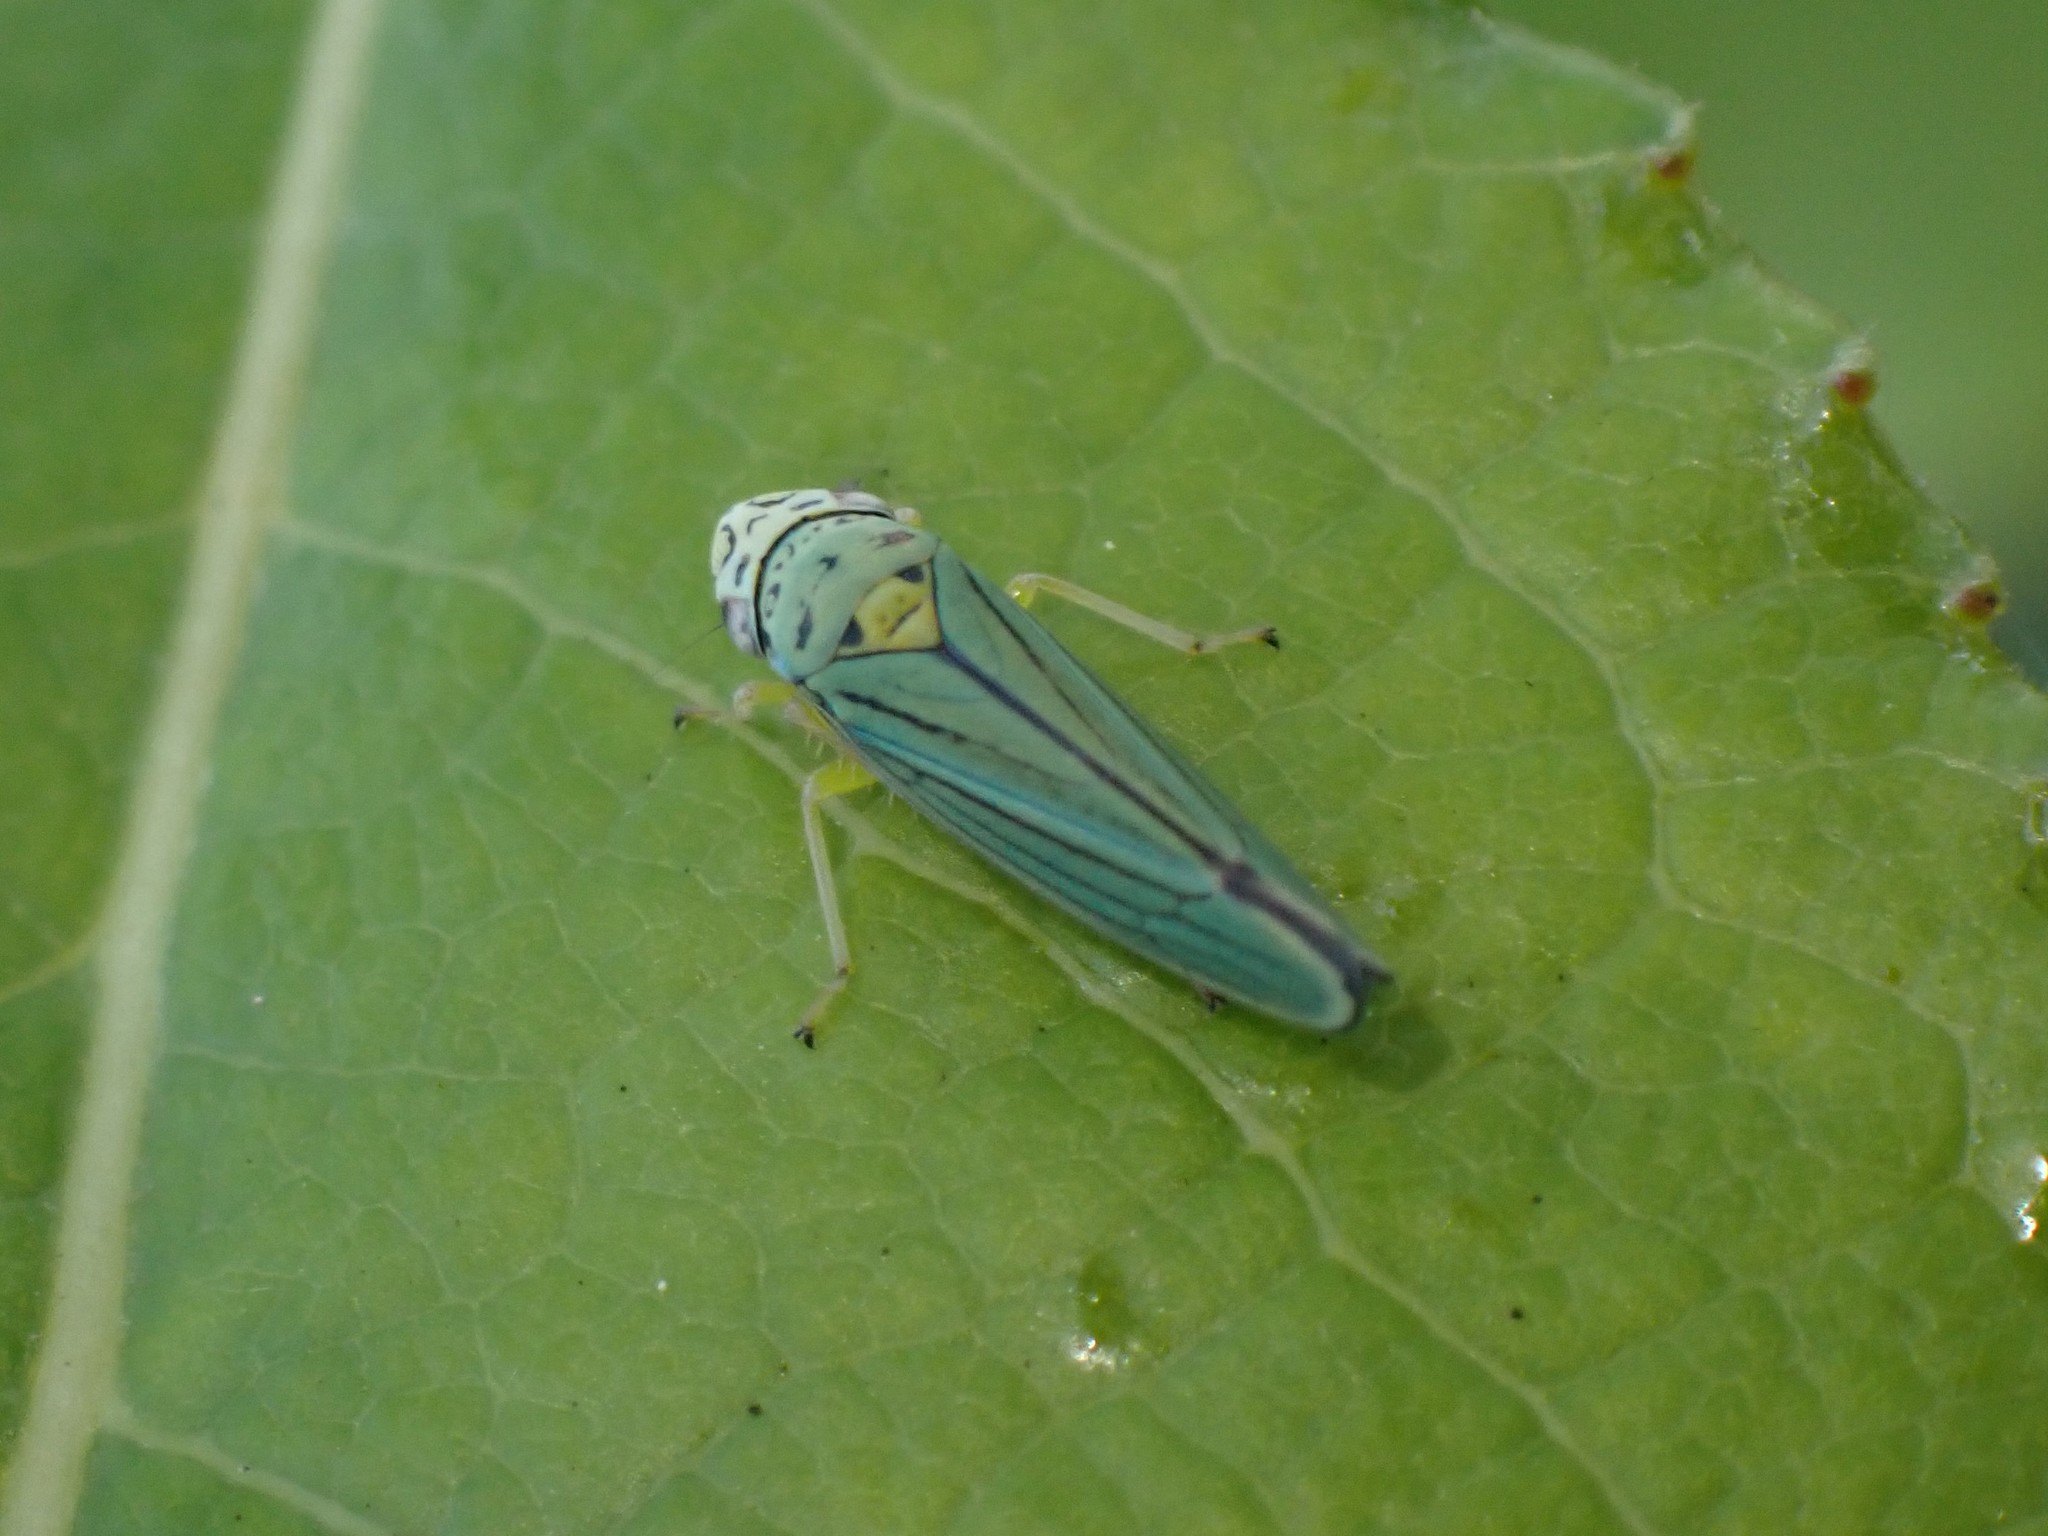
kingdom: Animalia
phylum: Arthropoda
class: Insecta
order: Hemiptera
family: Cicadellidae
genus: Graphocephala
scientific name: Graphocephala atropunctata
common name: Blue-green sharpshooter
